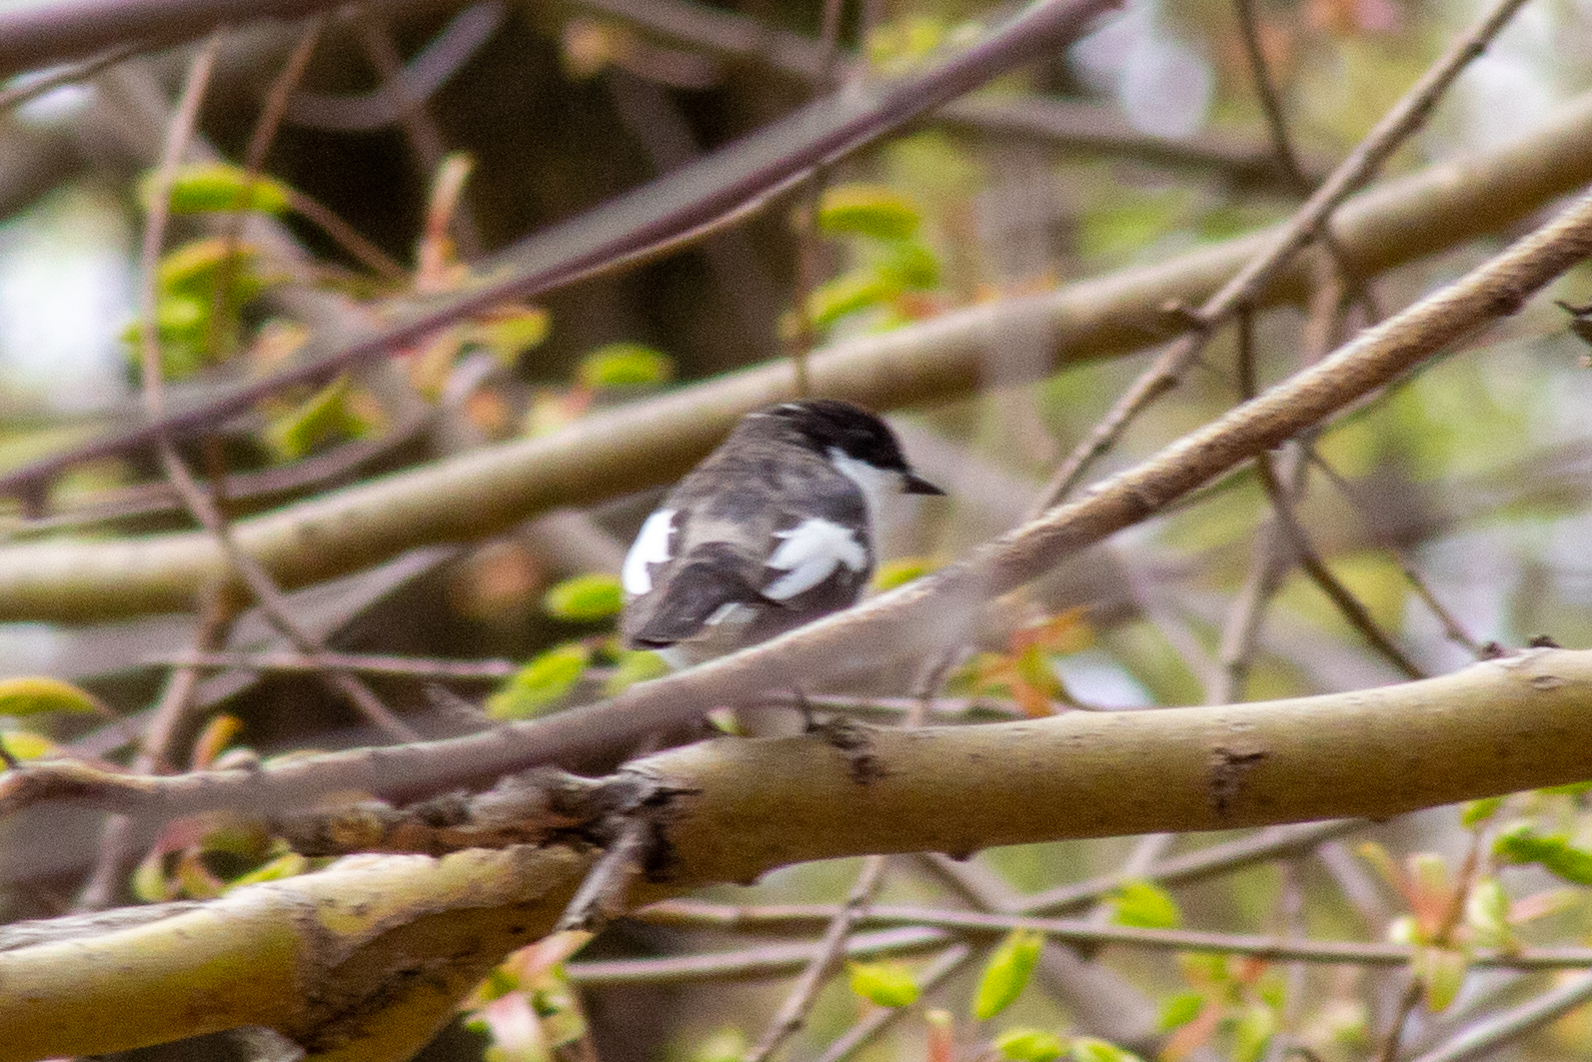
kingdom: Animalia
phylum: Chordata
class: Aves
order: Passeriformes
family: Muscicapidae
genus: Ficedula
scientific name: Ficedula hypoleuca
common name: European pied flycatcher
